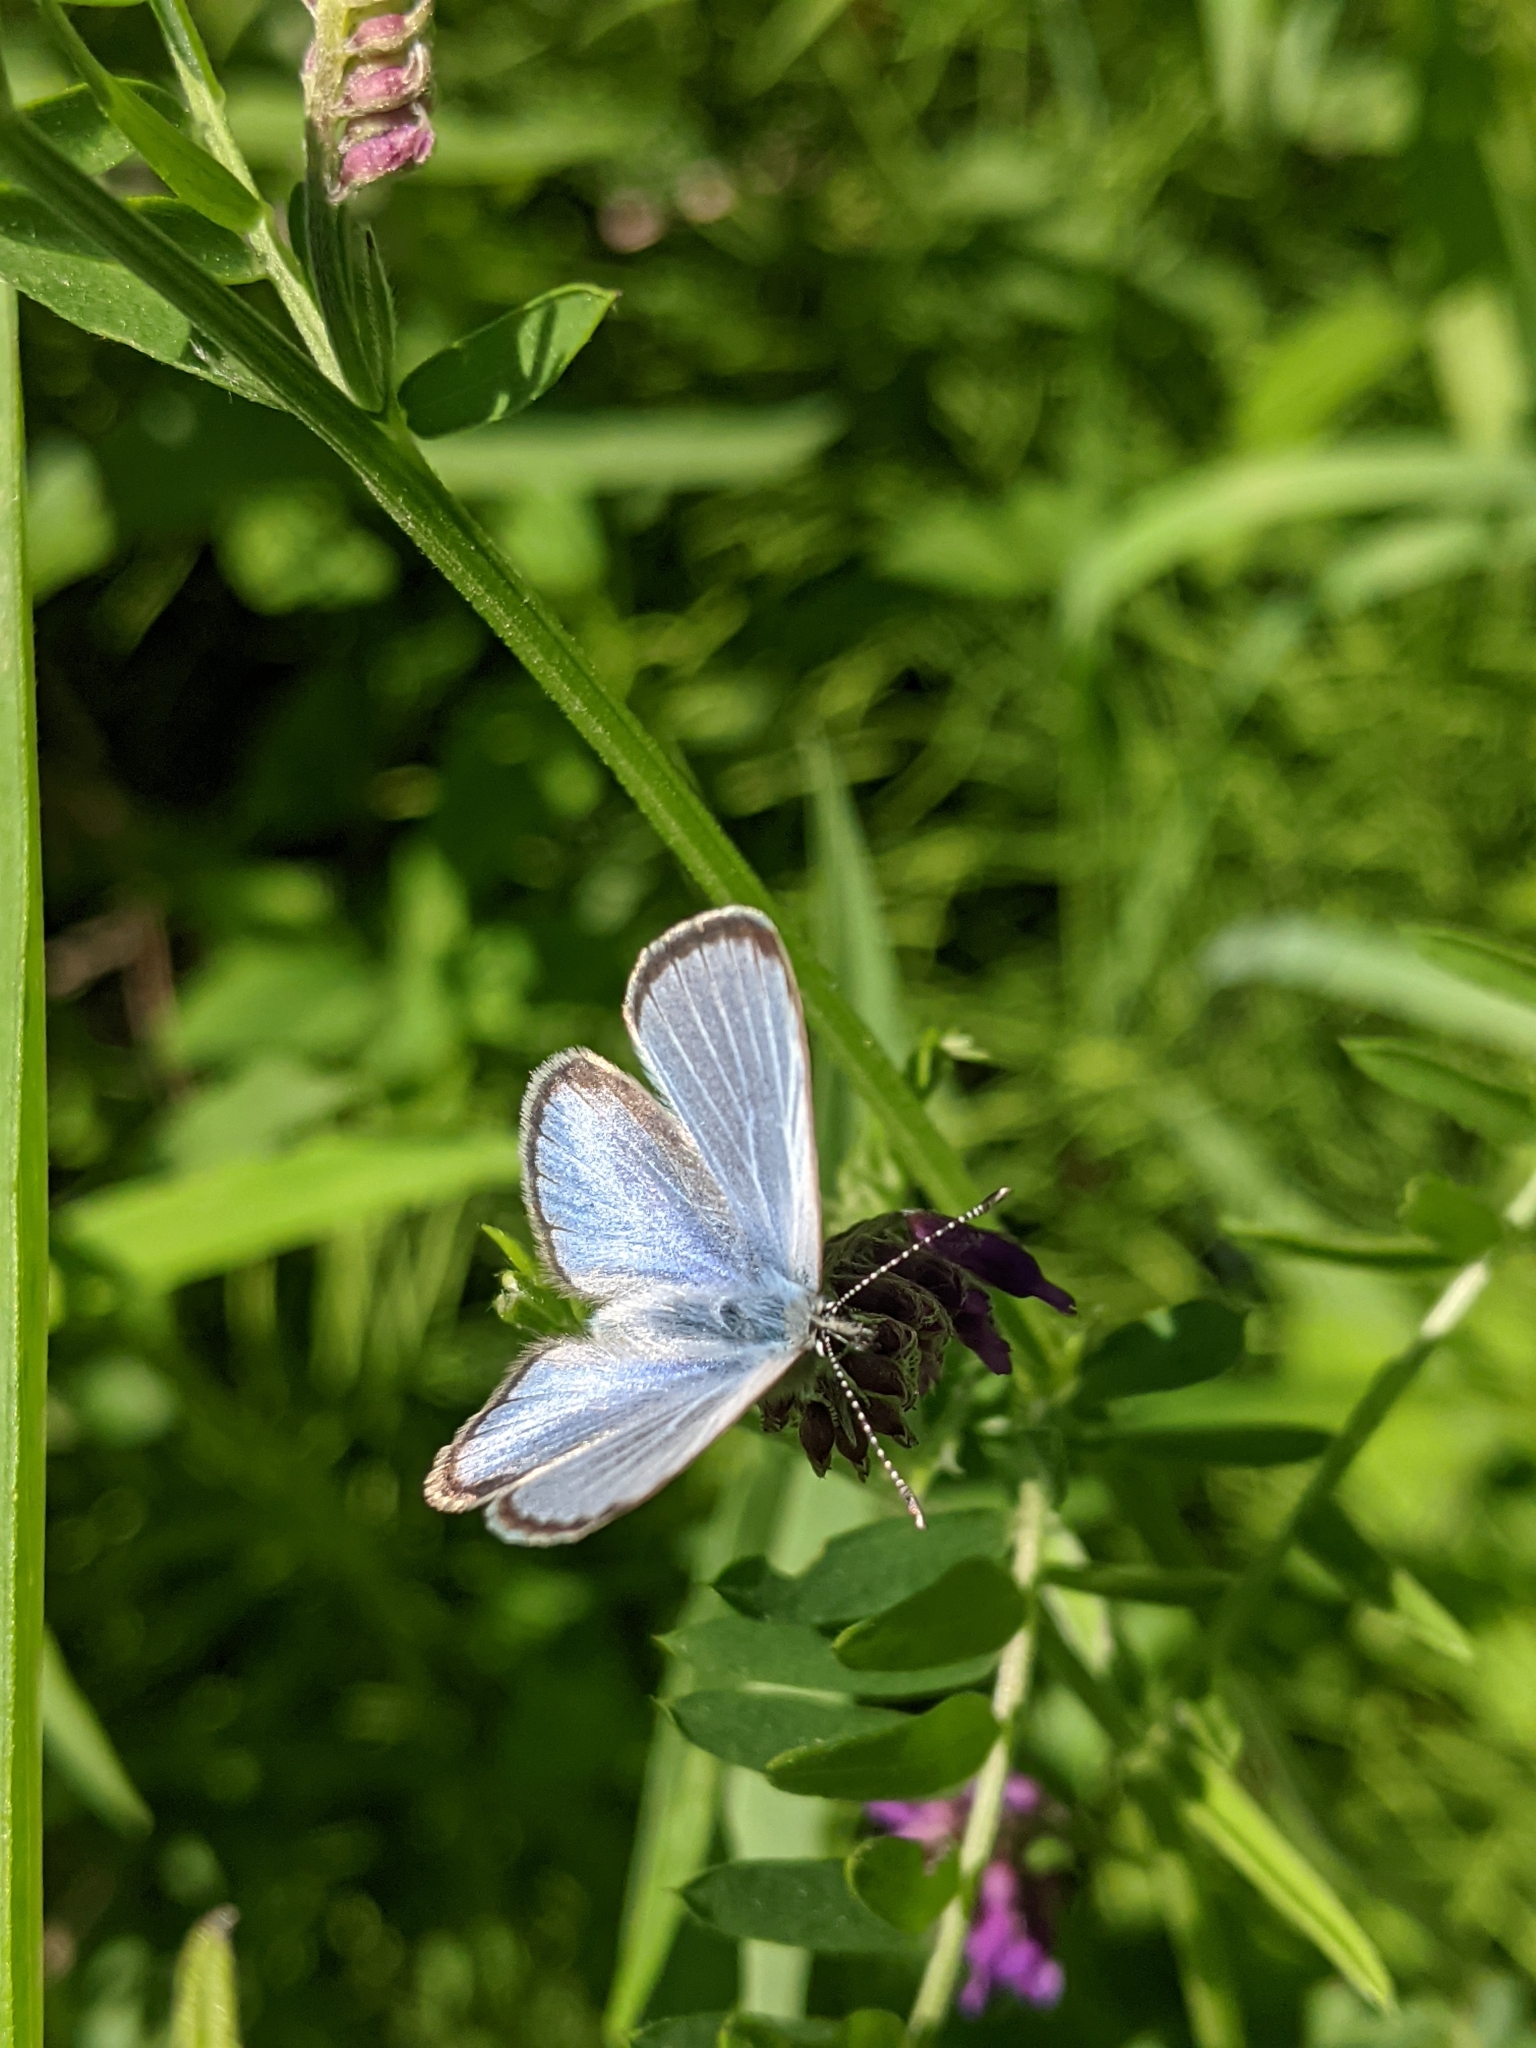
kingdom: Animalia
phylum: Arthropoda
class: Insecta
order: Lepidoptera
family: Lycaenidae
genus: Glaucopsyche
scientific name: Glaucopsyche lygdamus
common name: Silvery blue
